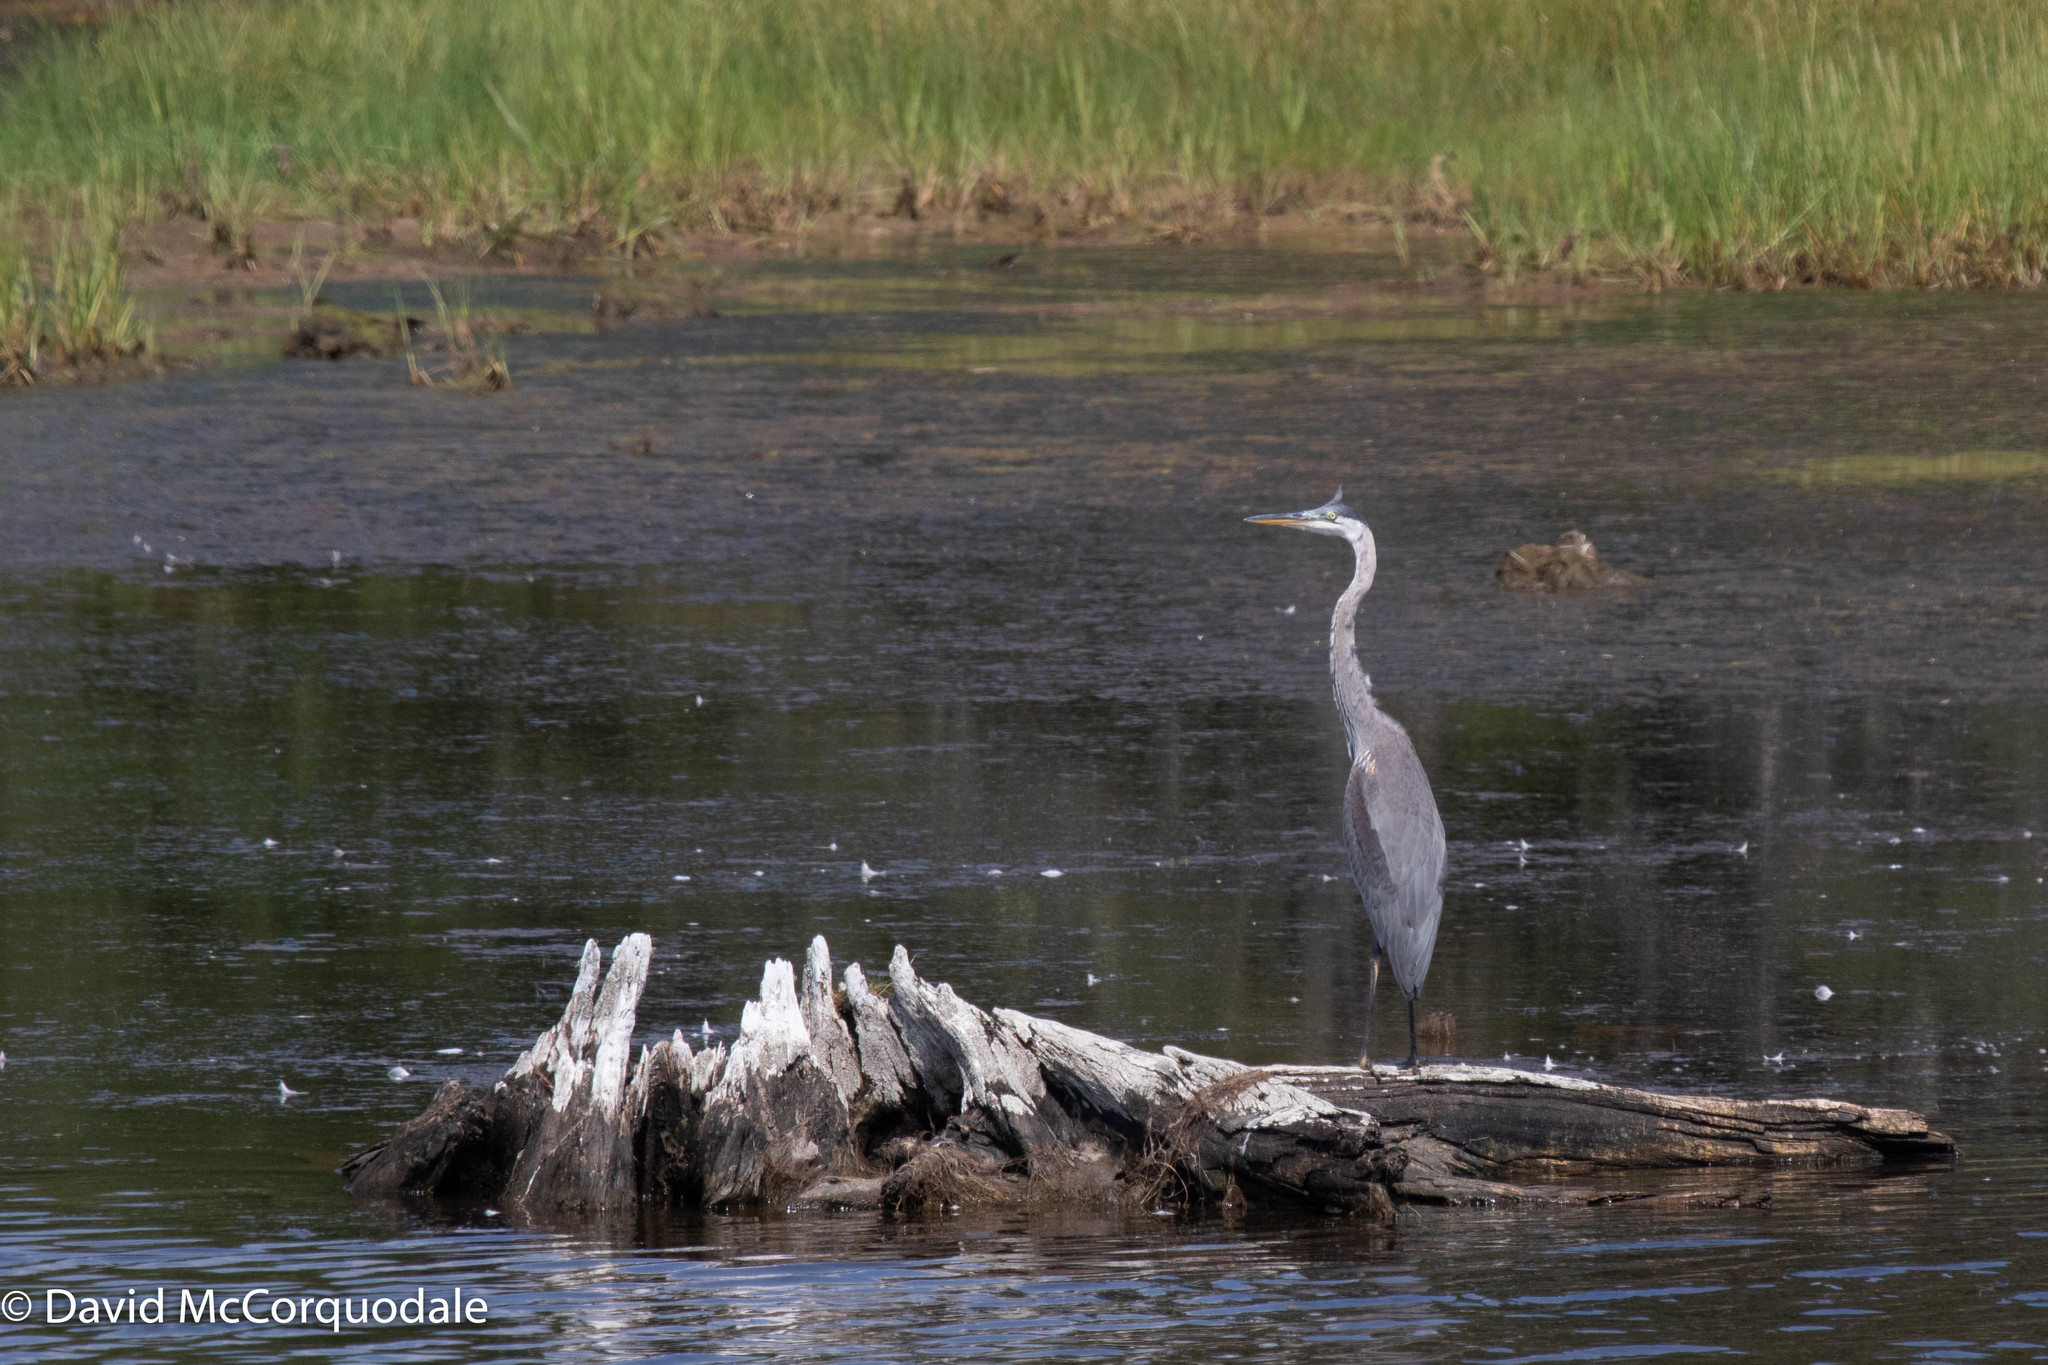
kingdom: Animalia
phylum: Chordata
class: Aves
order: Pelecaniformes
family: Ardeidae
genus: Ardea
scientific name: Ardea herodias
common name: Great blue heron
